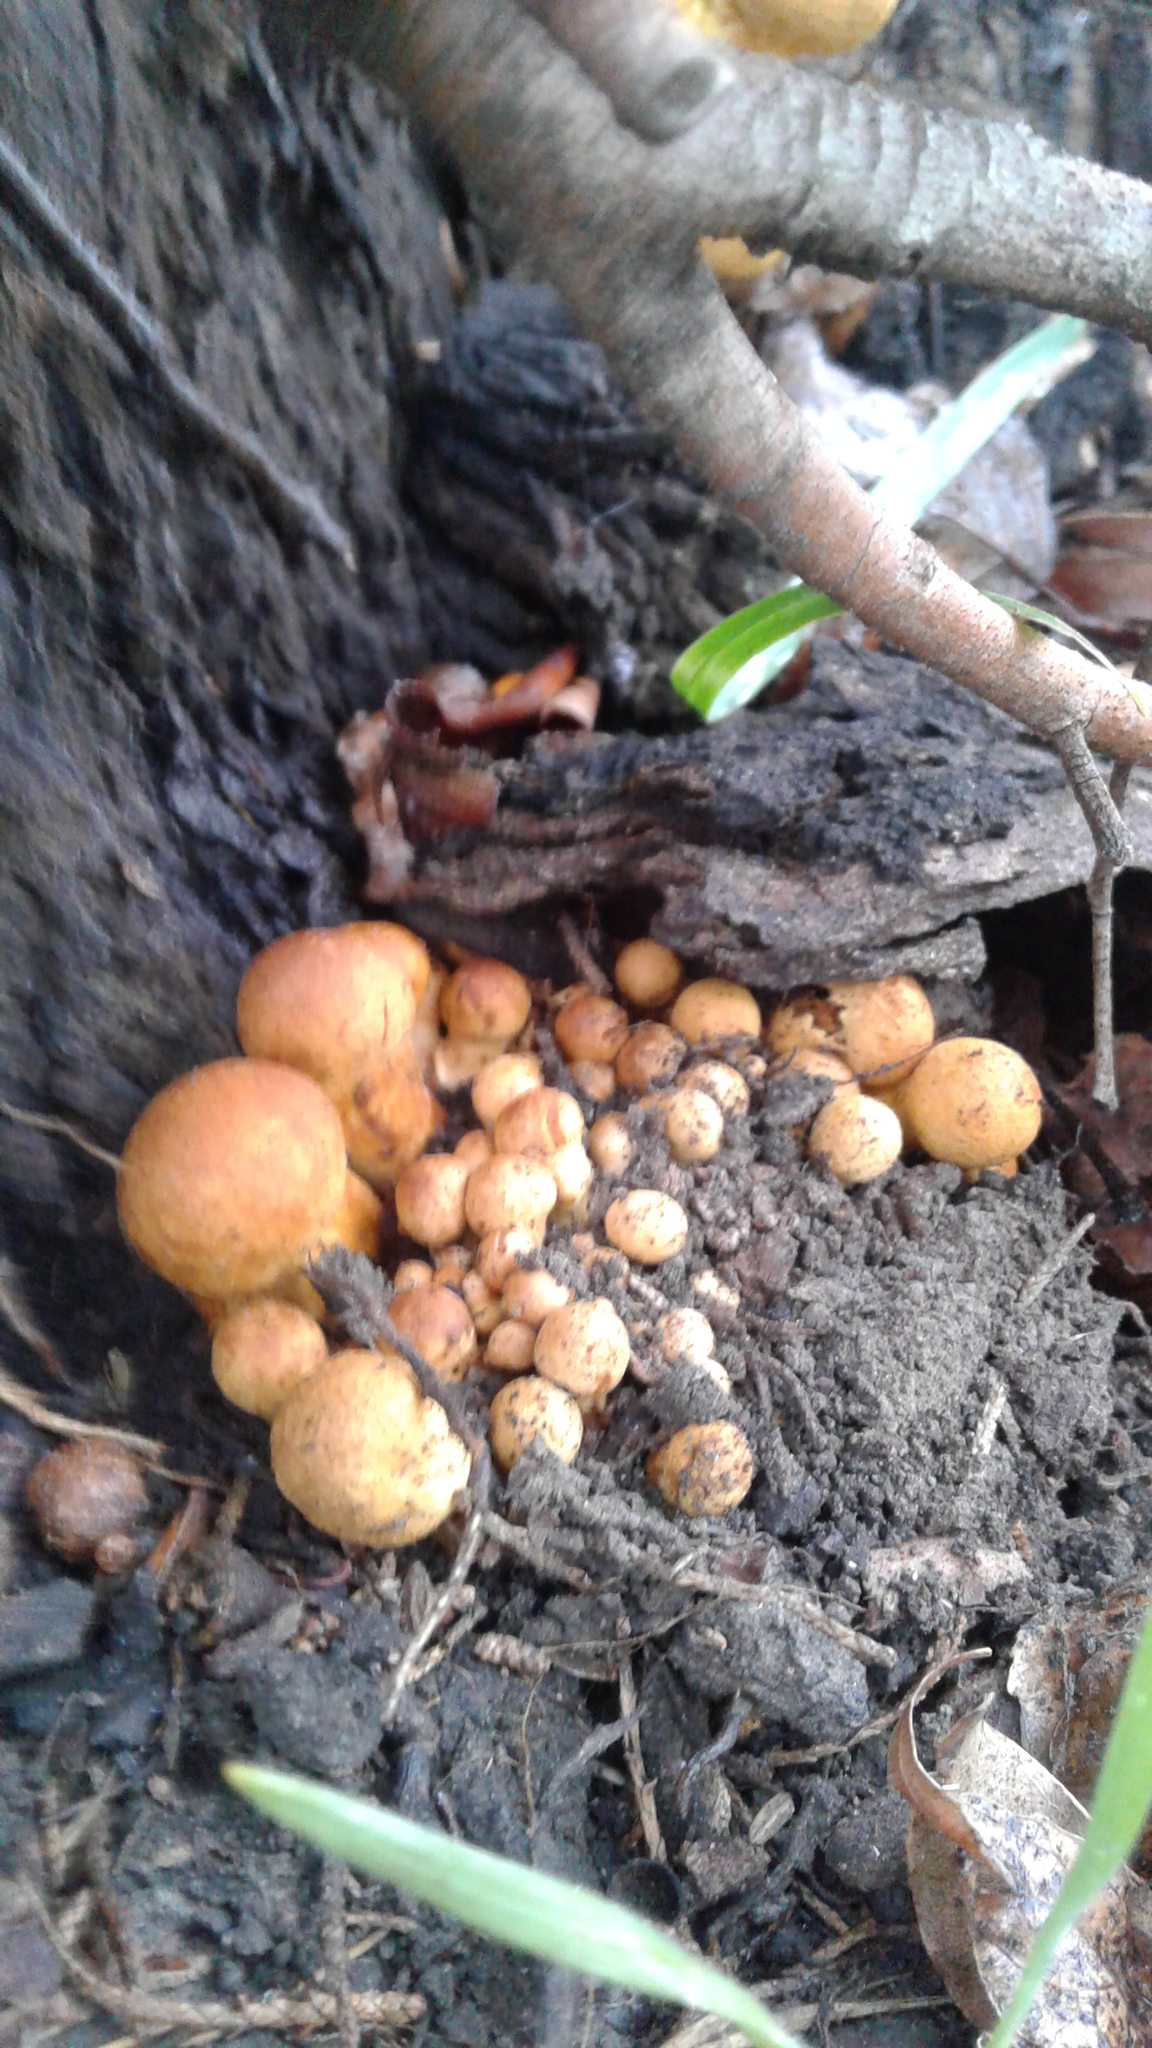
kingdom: Fungi
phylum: Basidiomycota
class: Agaricomycetes
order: Agaricales
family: Hymenogastraceae
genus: Gymnopilus
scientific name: Gymnopilus junonius
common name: Spectacular rustgill
